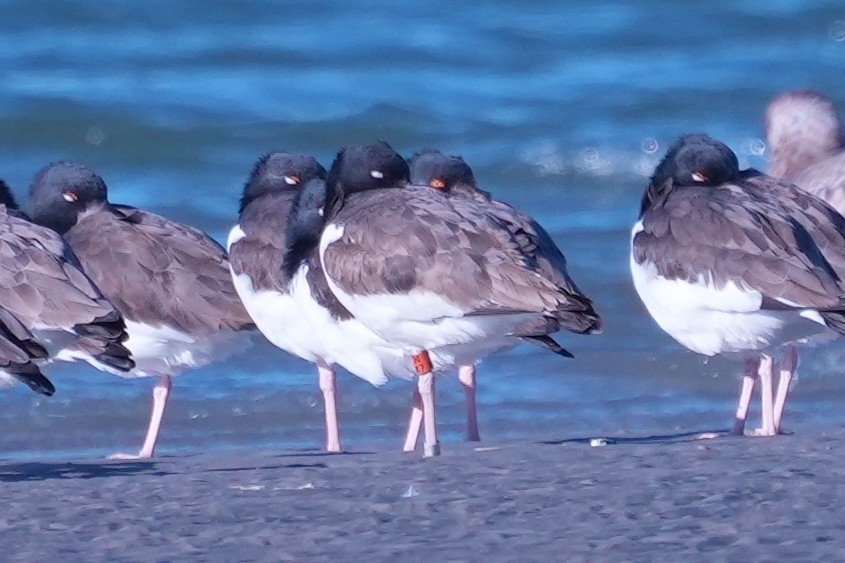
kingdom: Animalia
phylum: Chordata
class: Aves
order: Charadriiformes
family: Haematopodidae
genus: Haematopus
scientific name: Haematopus palliatus
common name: American oystercatcher
